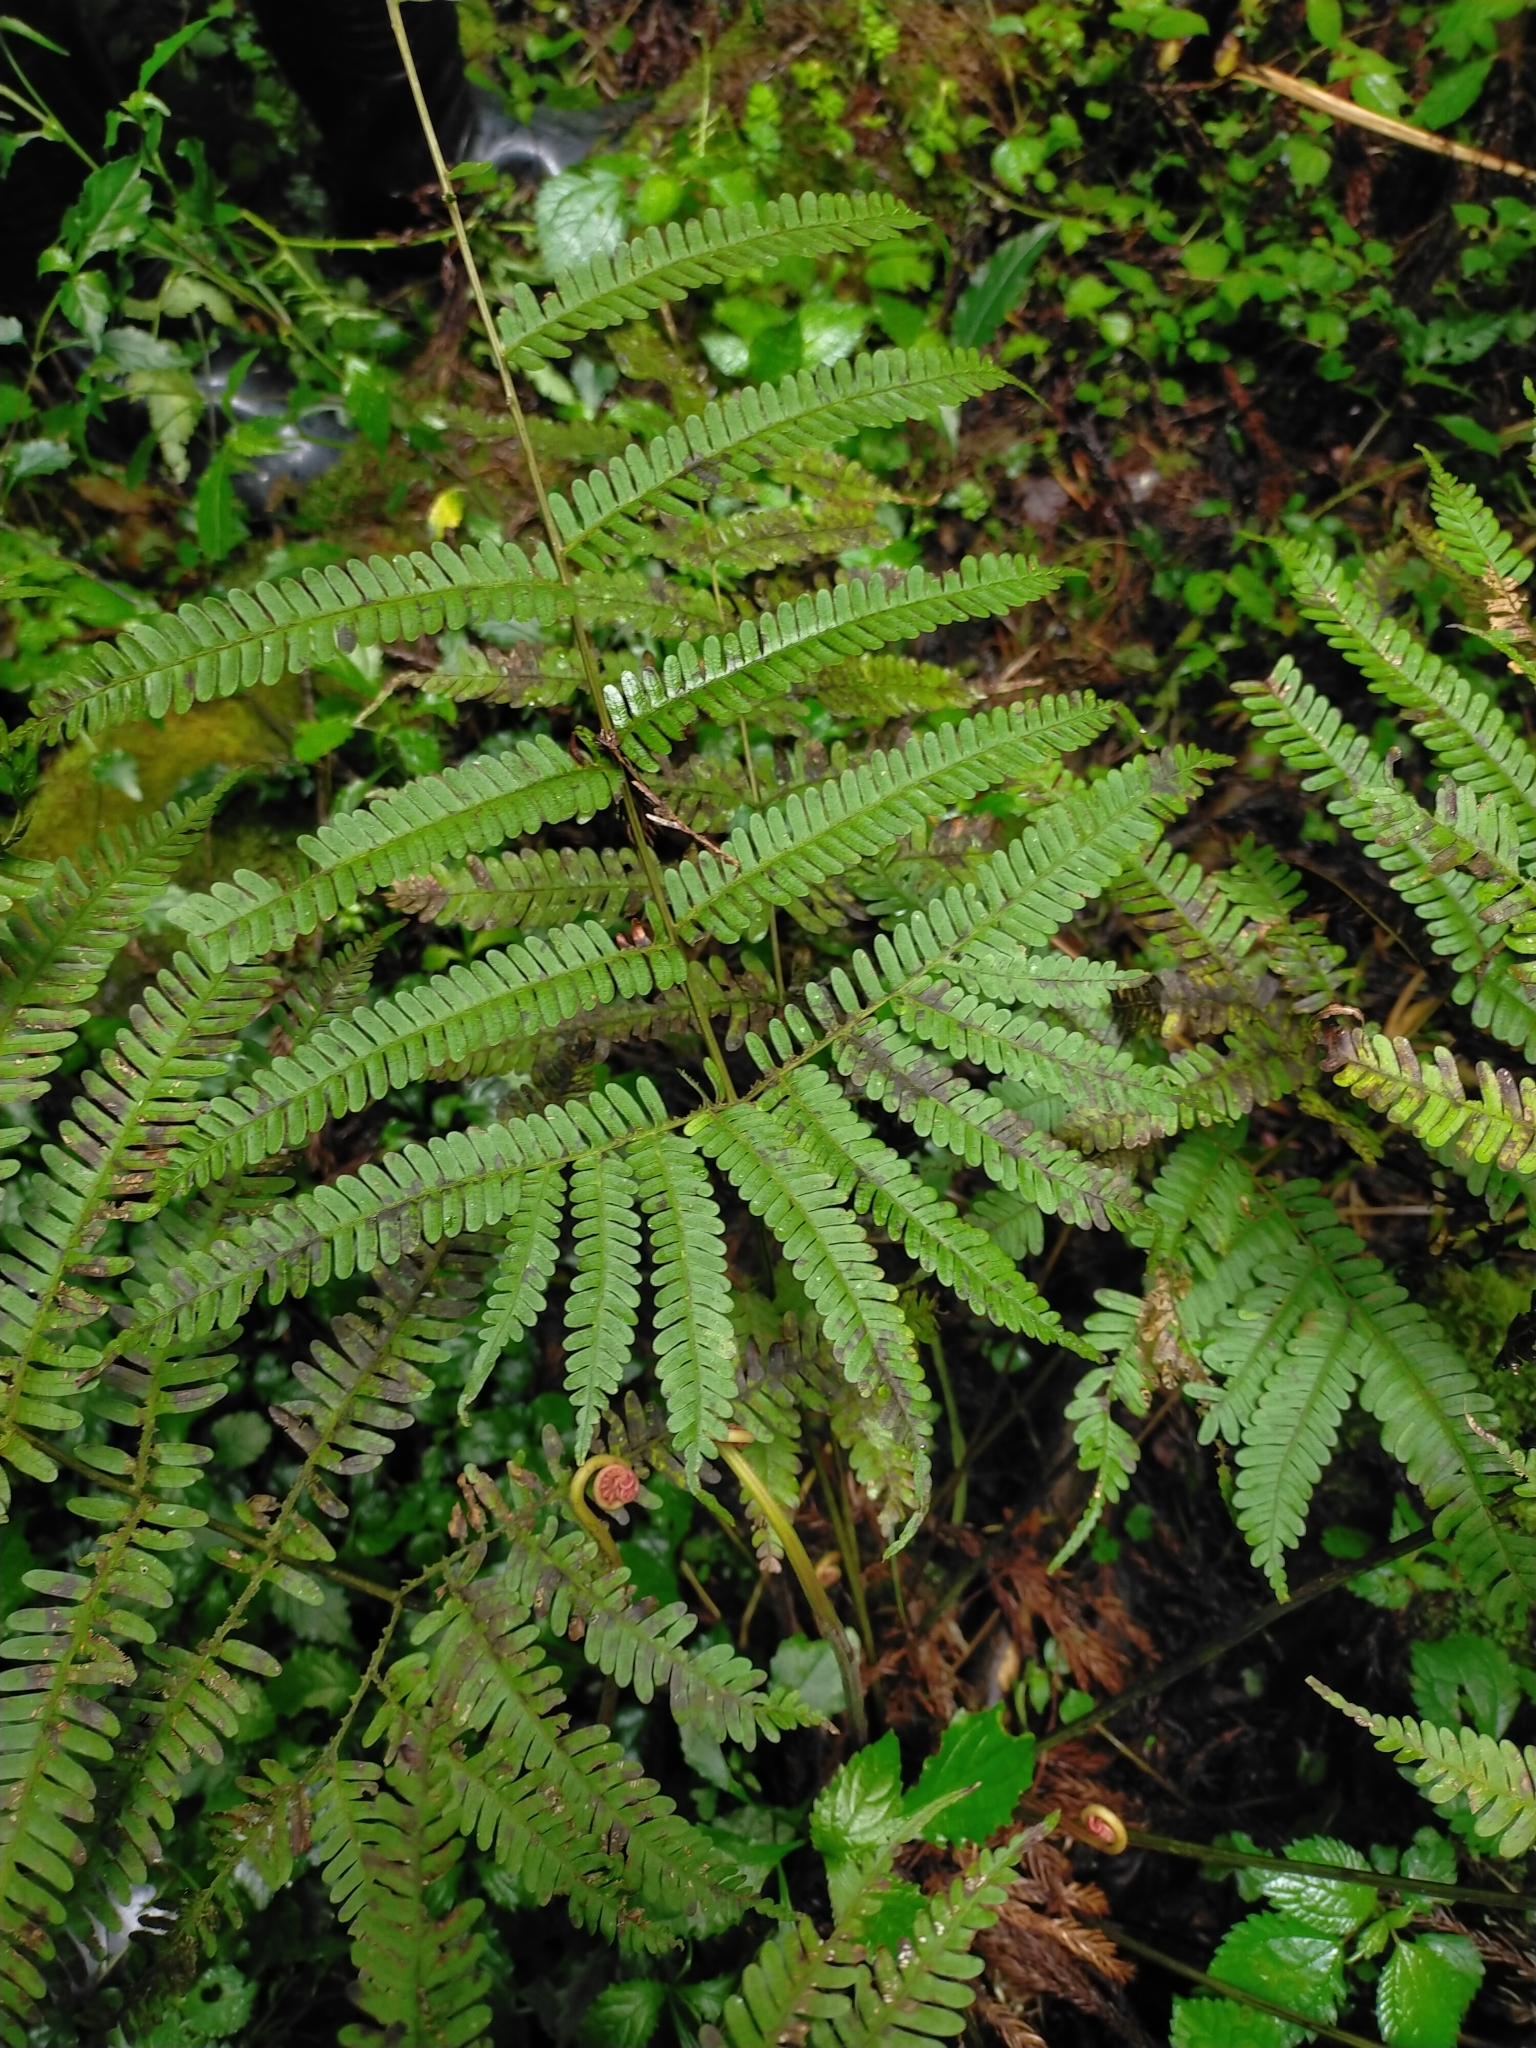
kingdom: Plantae
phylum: Tracheophyta
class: Polypodiopsida
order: Polypodiales
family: Pteridaceae
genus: Pteris
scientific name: Pteris setulosocostulata
